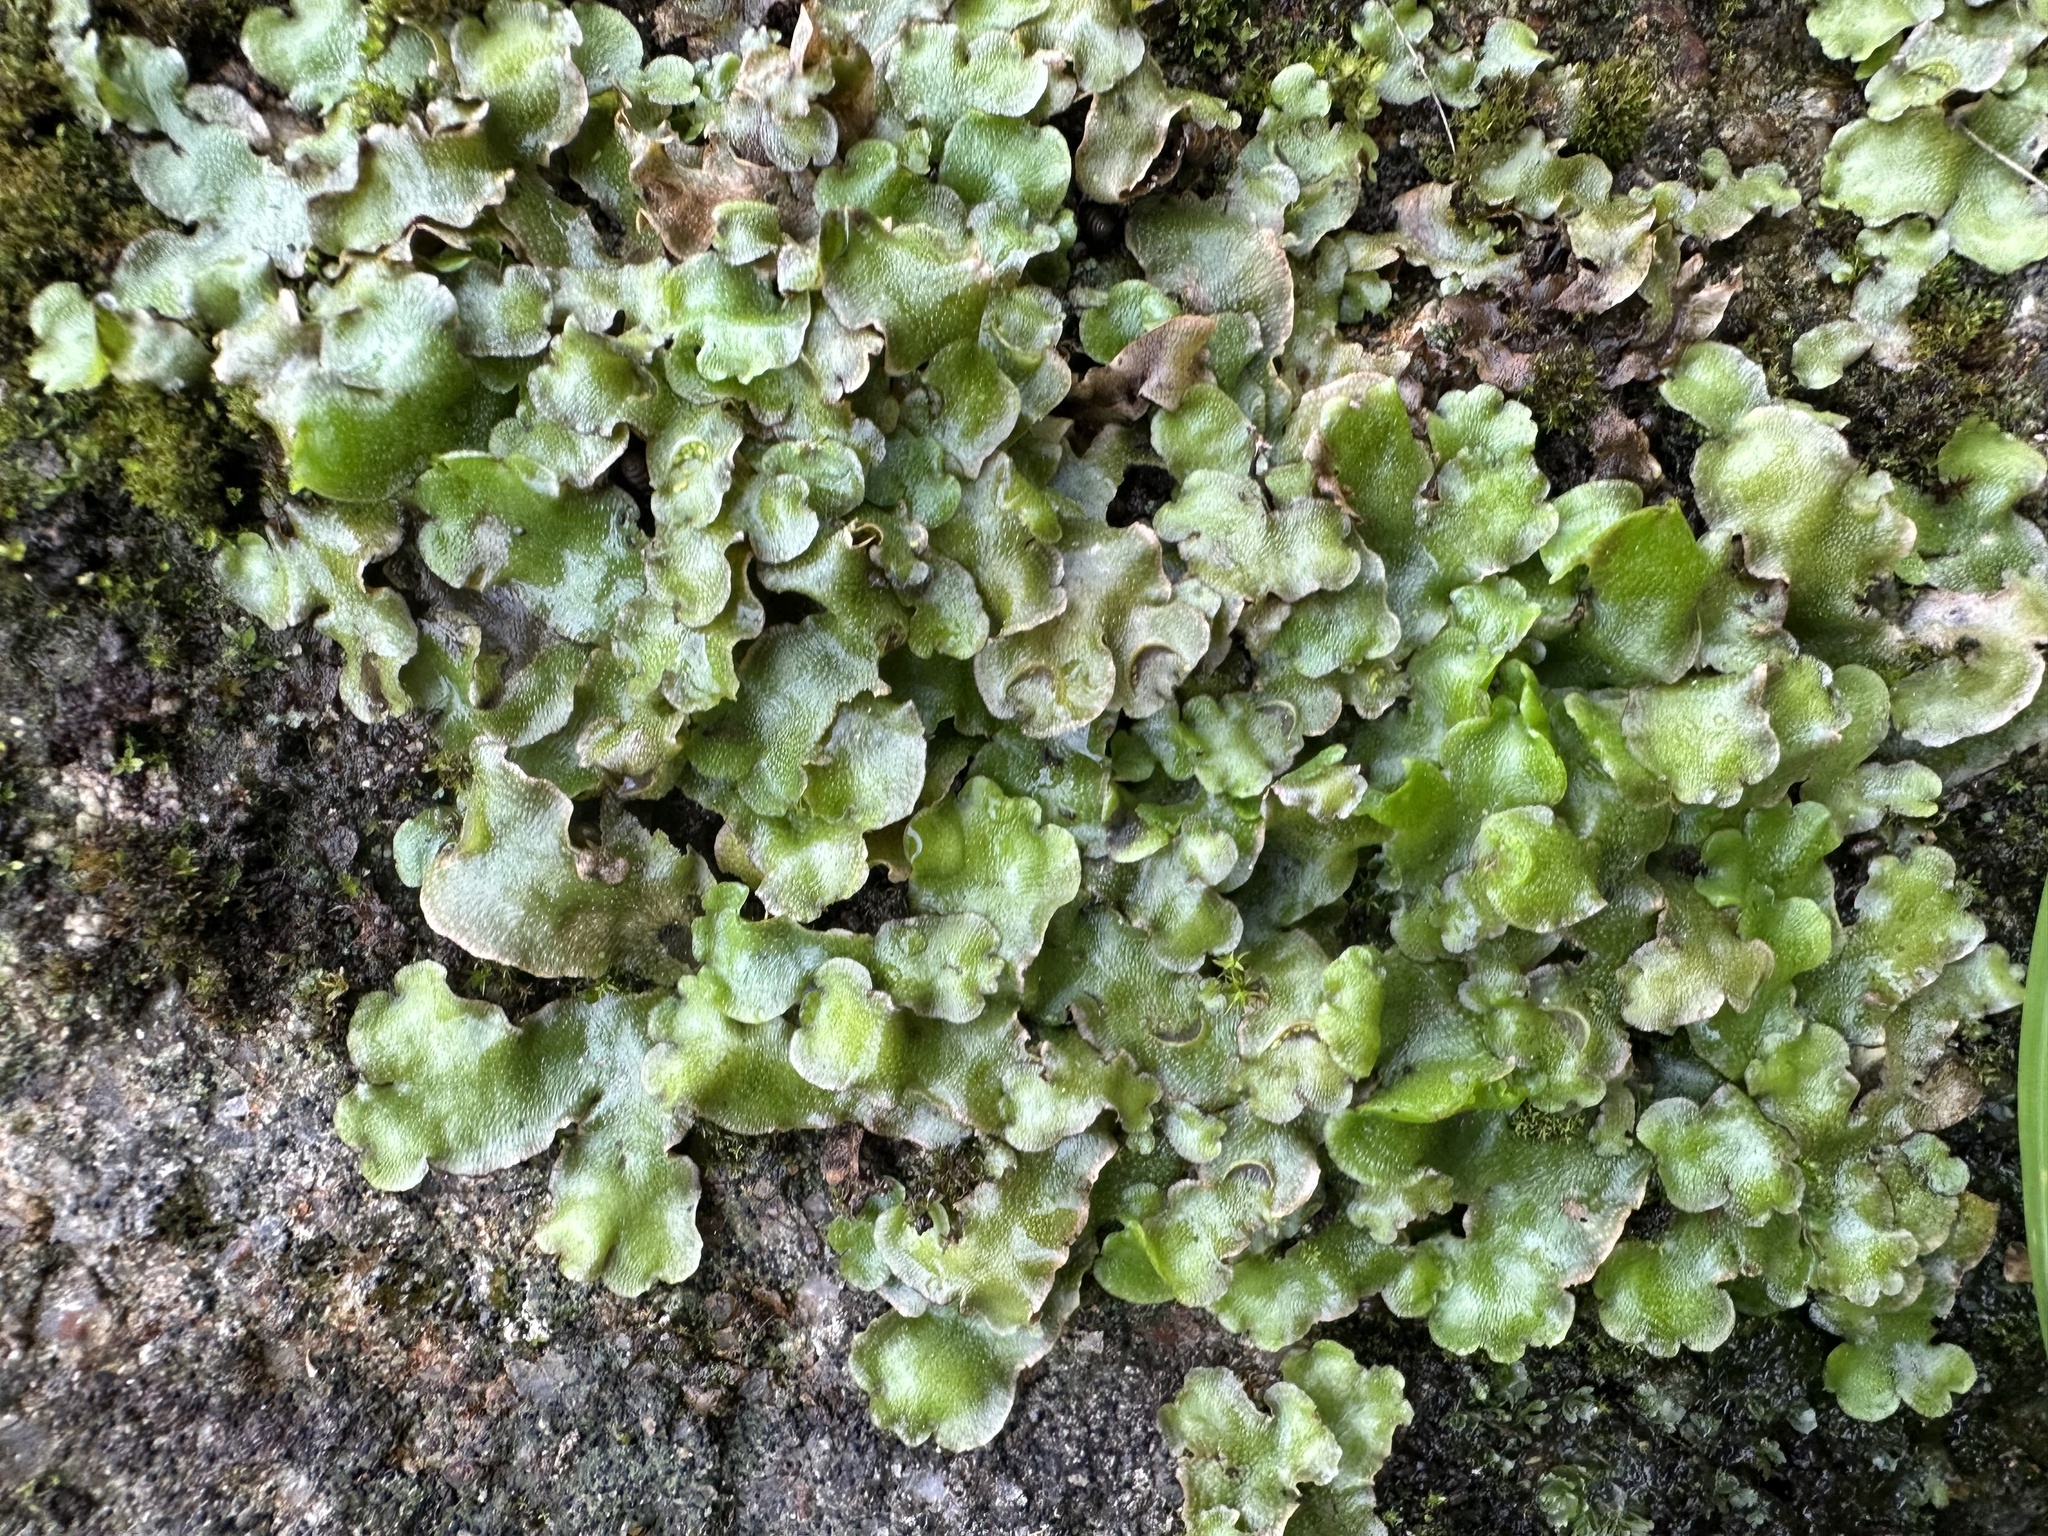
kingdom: Plantae
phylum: Marchantiophyta
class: Marchantiopsida
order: Lunulariales
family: Lunulariaceae
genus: Lunularia
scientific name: Lunularia cruciata
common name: Crescent-cup liverwort
